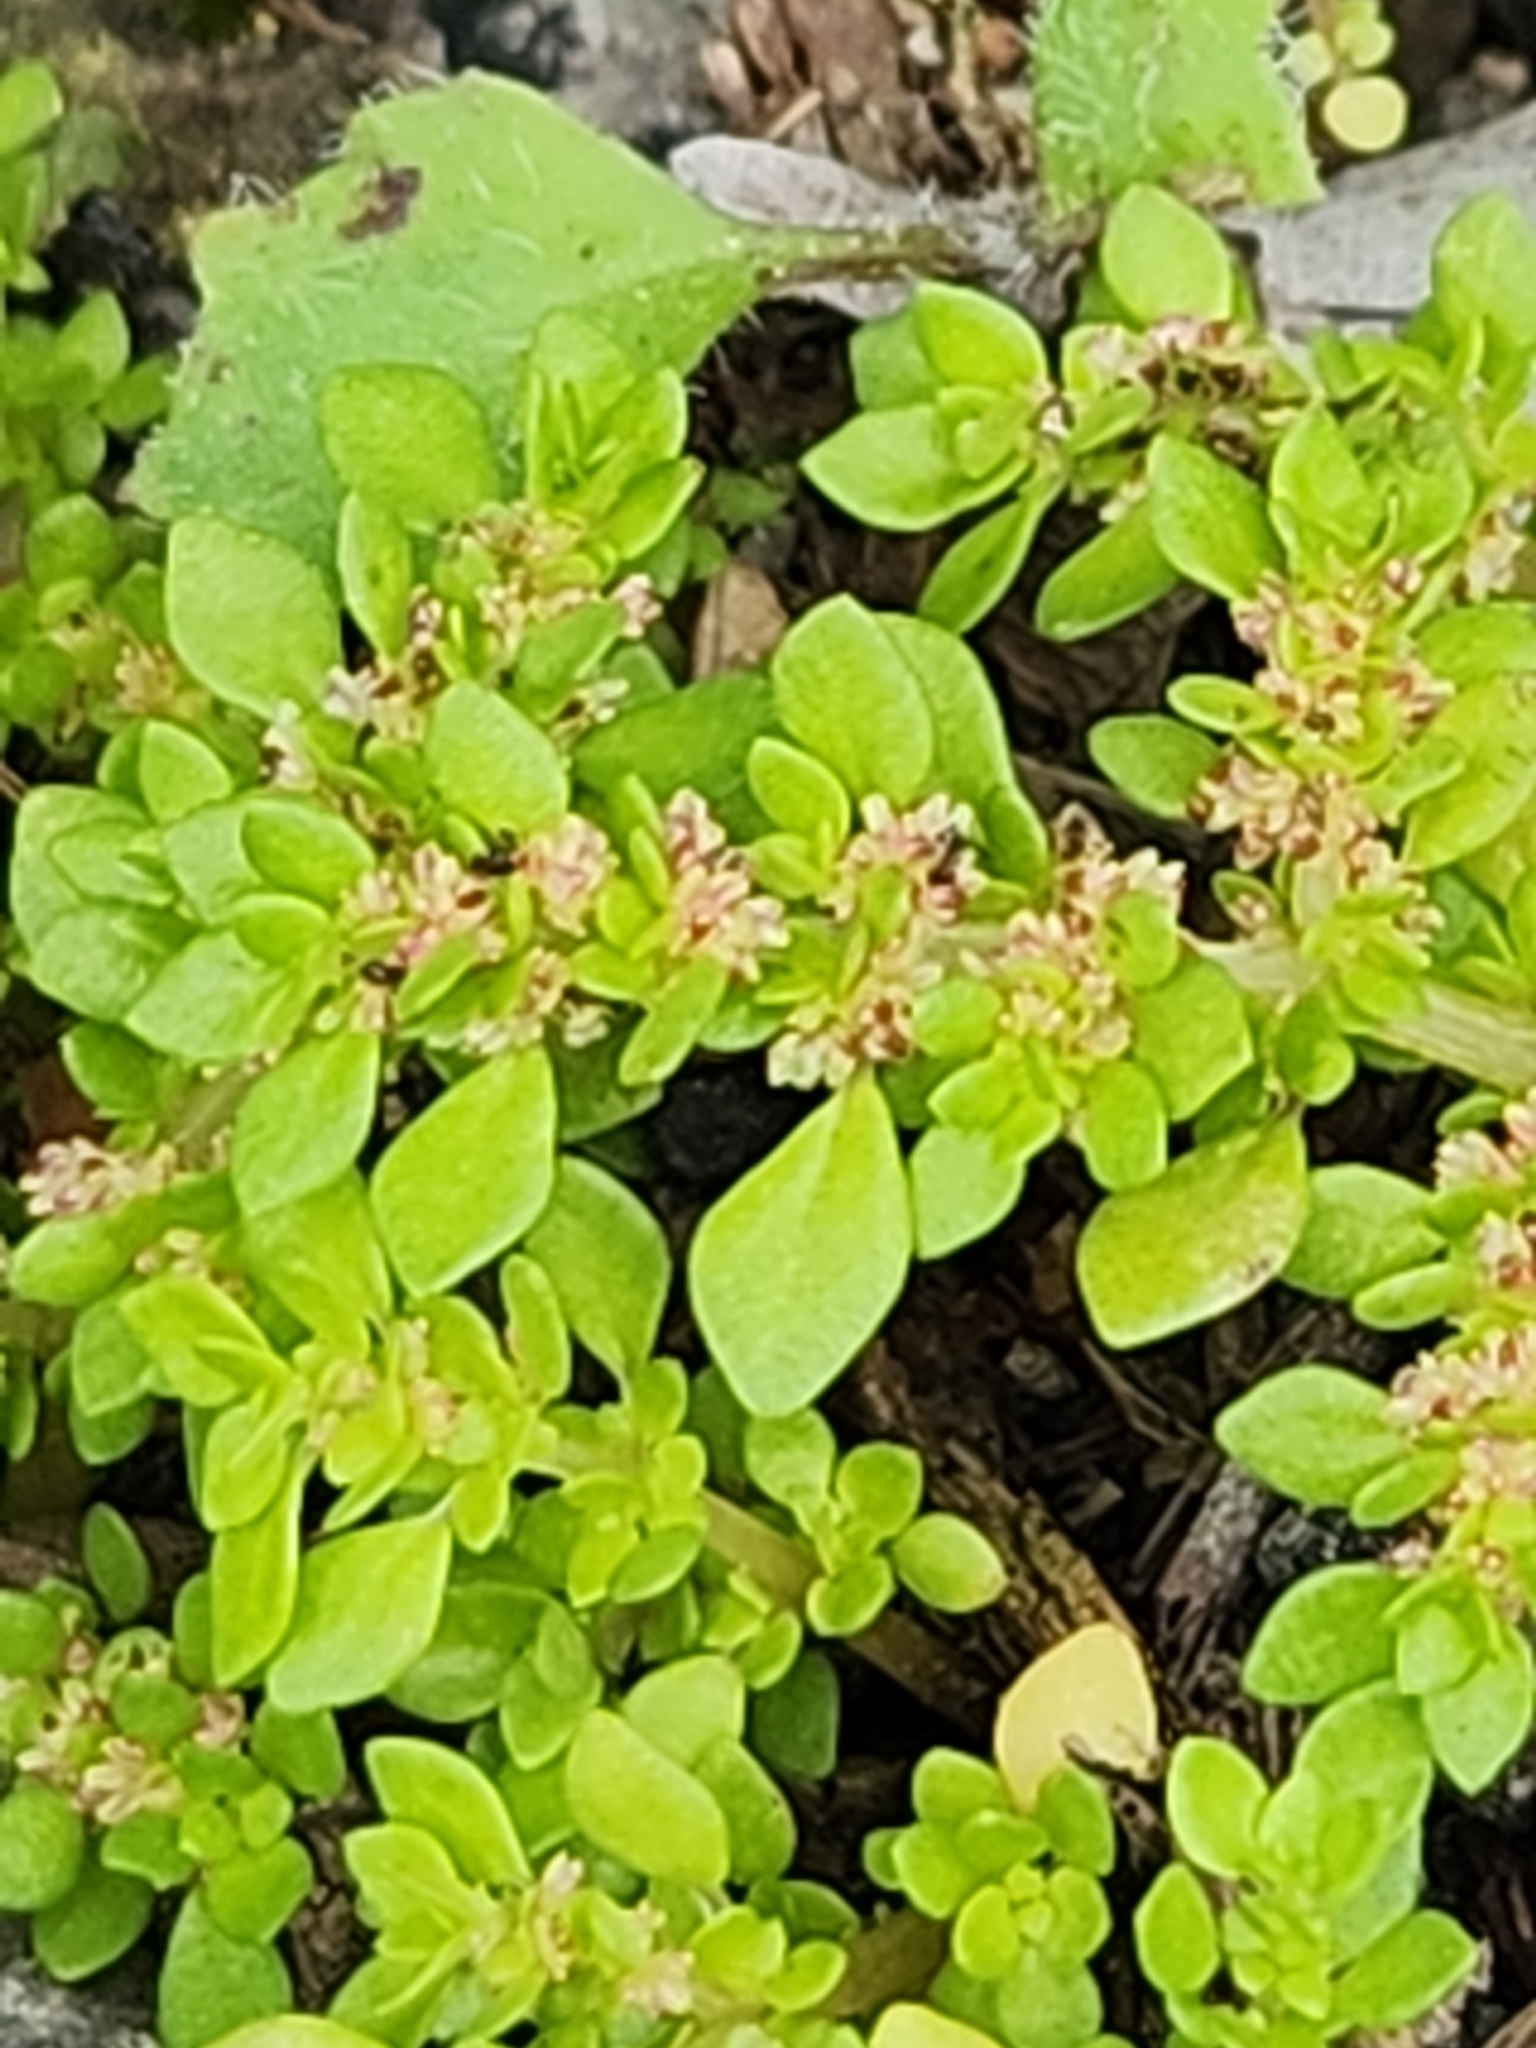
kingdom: Plantae
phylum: Tracheophyta
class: Magnoliopsida
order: Rosales
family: Urticaceae
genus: Pilea
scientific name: Pilea microphylla
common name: Artillery-plant
